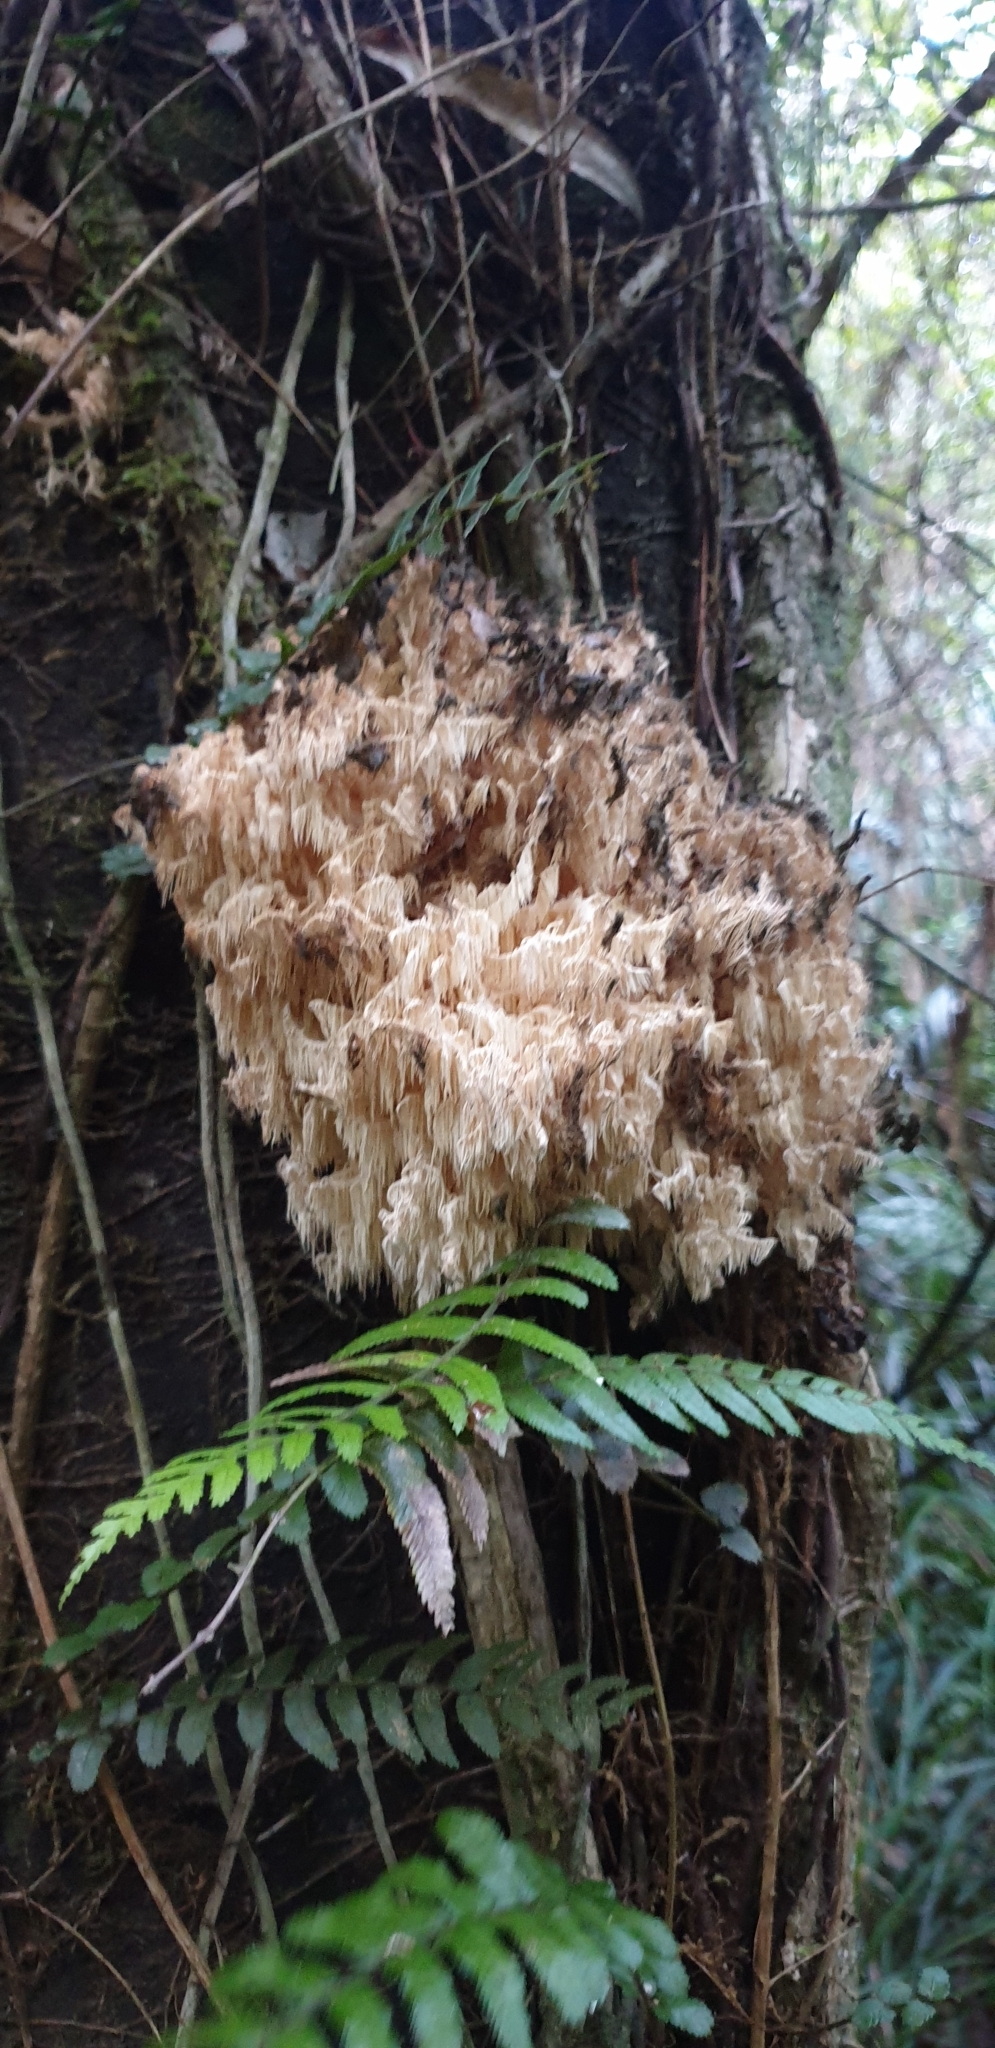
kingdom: Fungi
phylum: Basidiomycota
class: Agaricomycetes
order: Russulales
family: Hericiaceae
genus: Hericium
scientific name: Hericium novae-zealandiae
